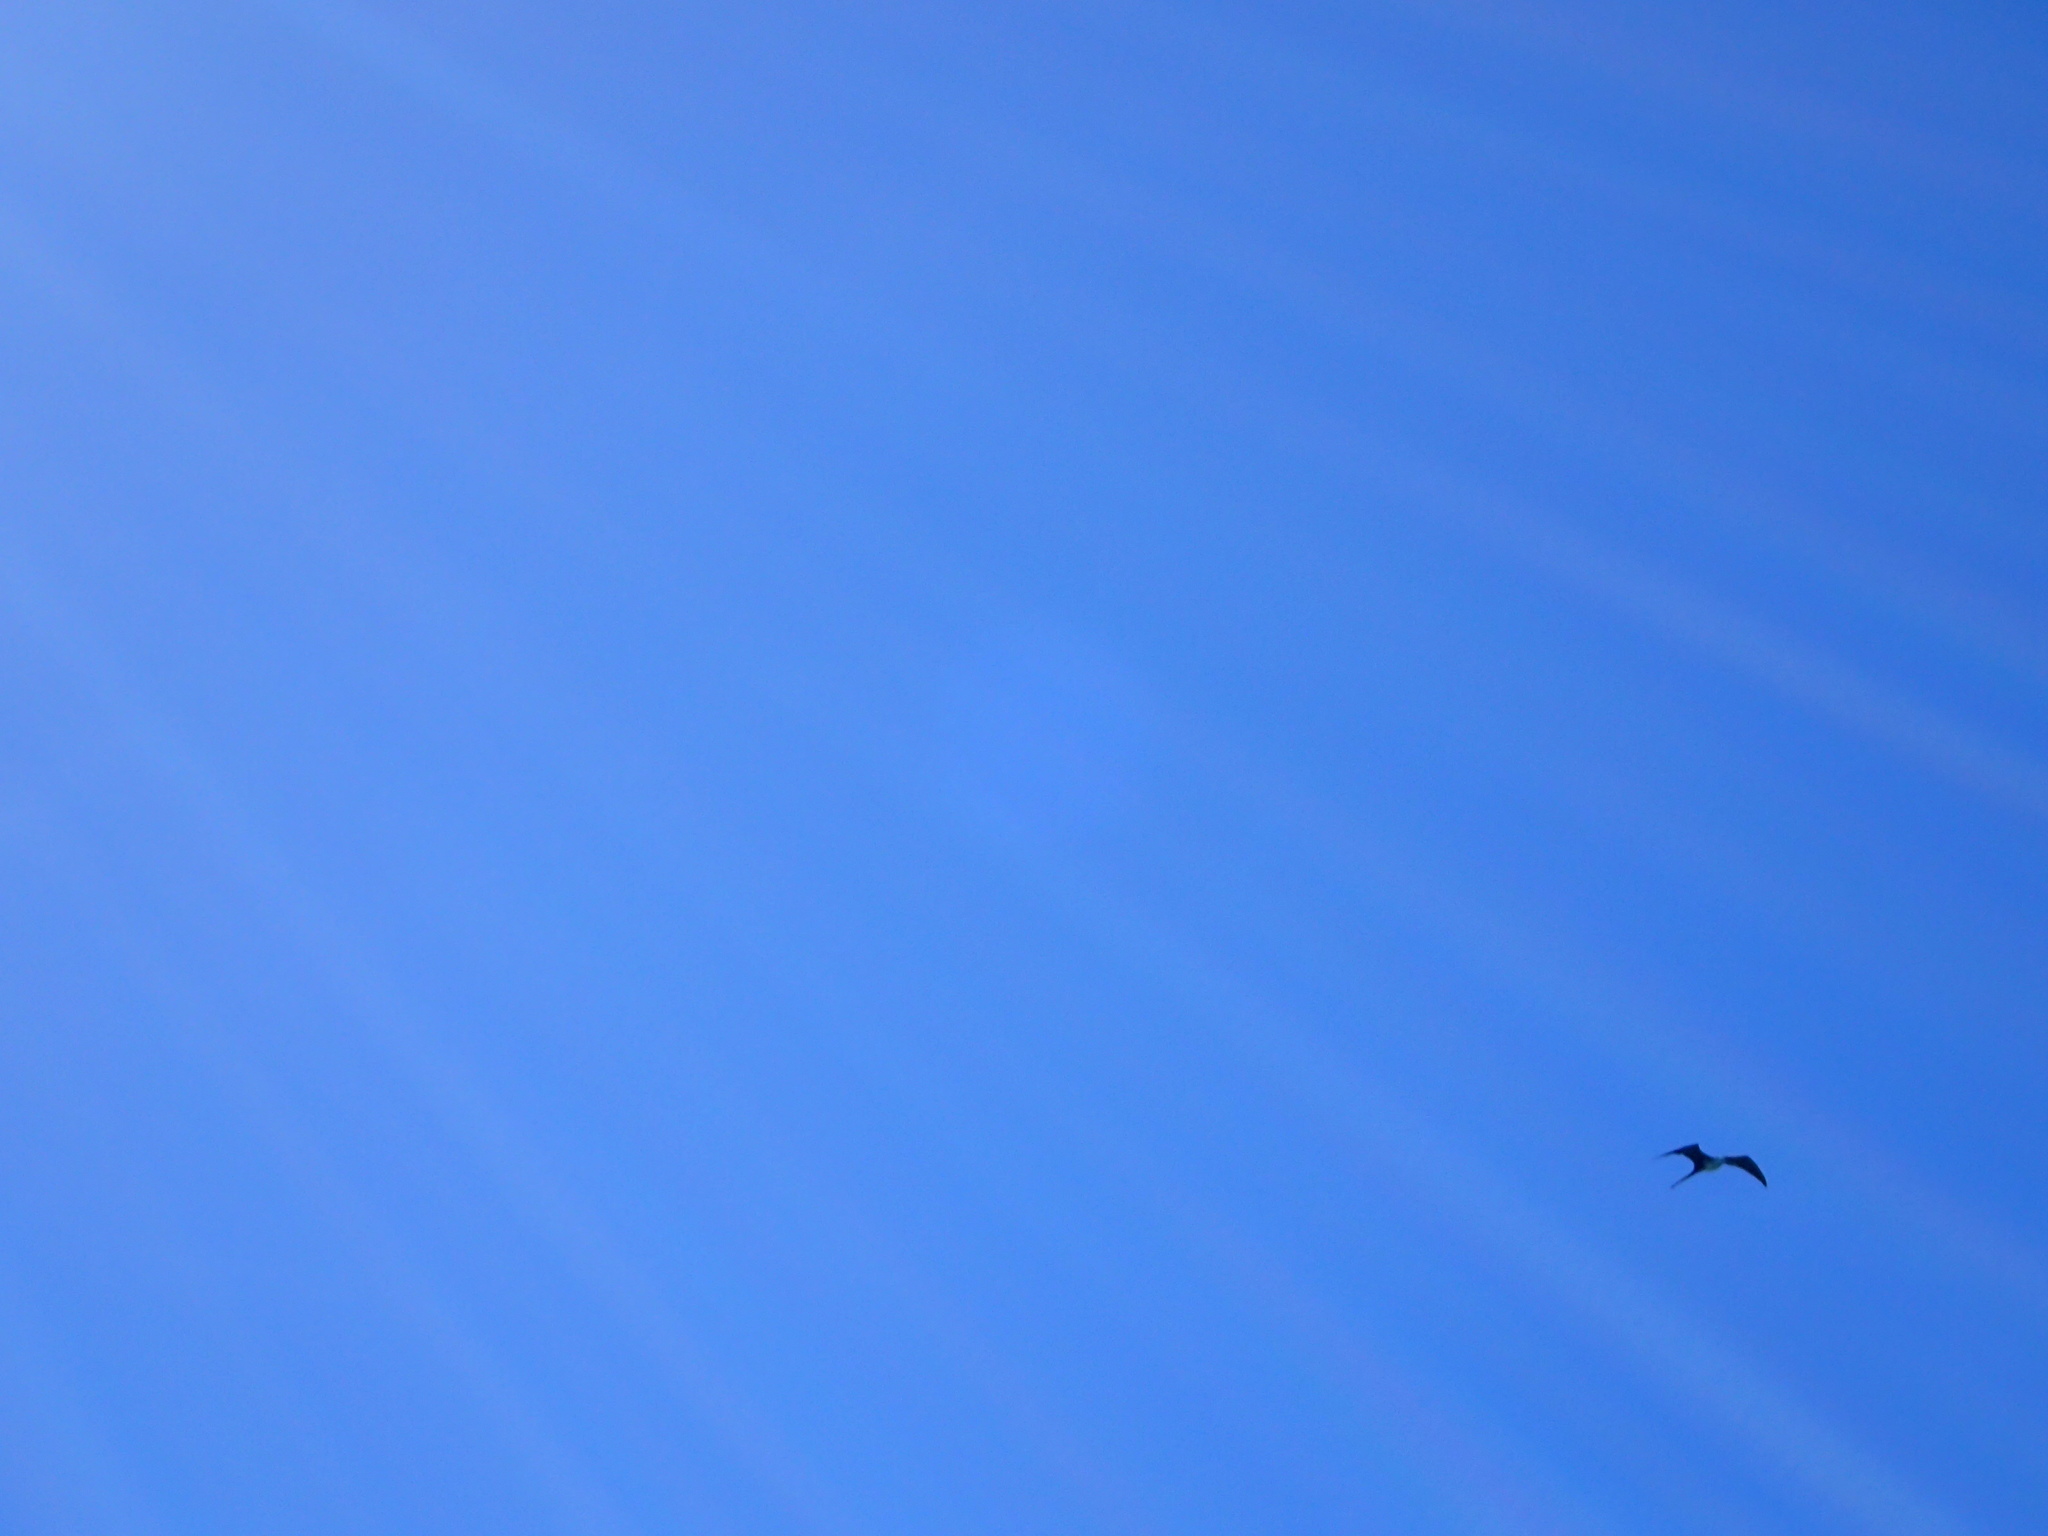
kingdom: Animalia
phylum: Chordata
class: Aves
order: Suliformes
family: Fregatidae
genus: Fregata
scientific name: Fregata magnificens
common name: Magnificent frigatebird
